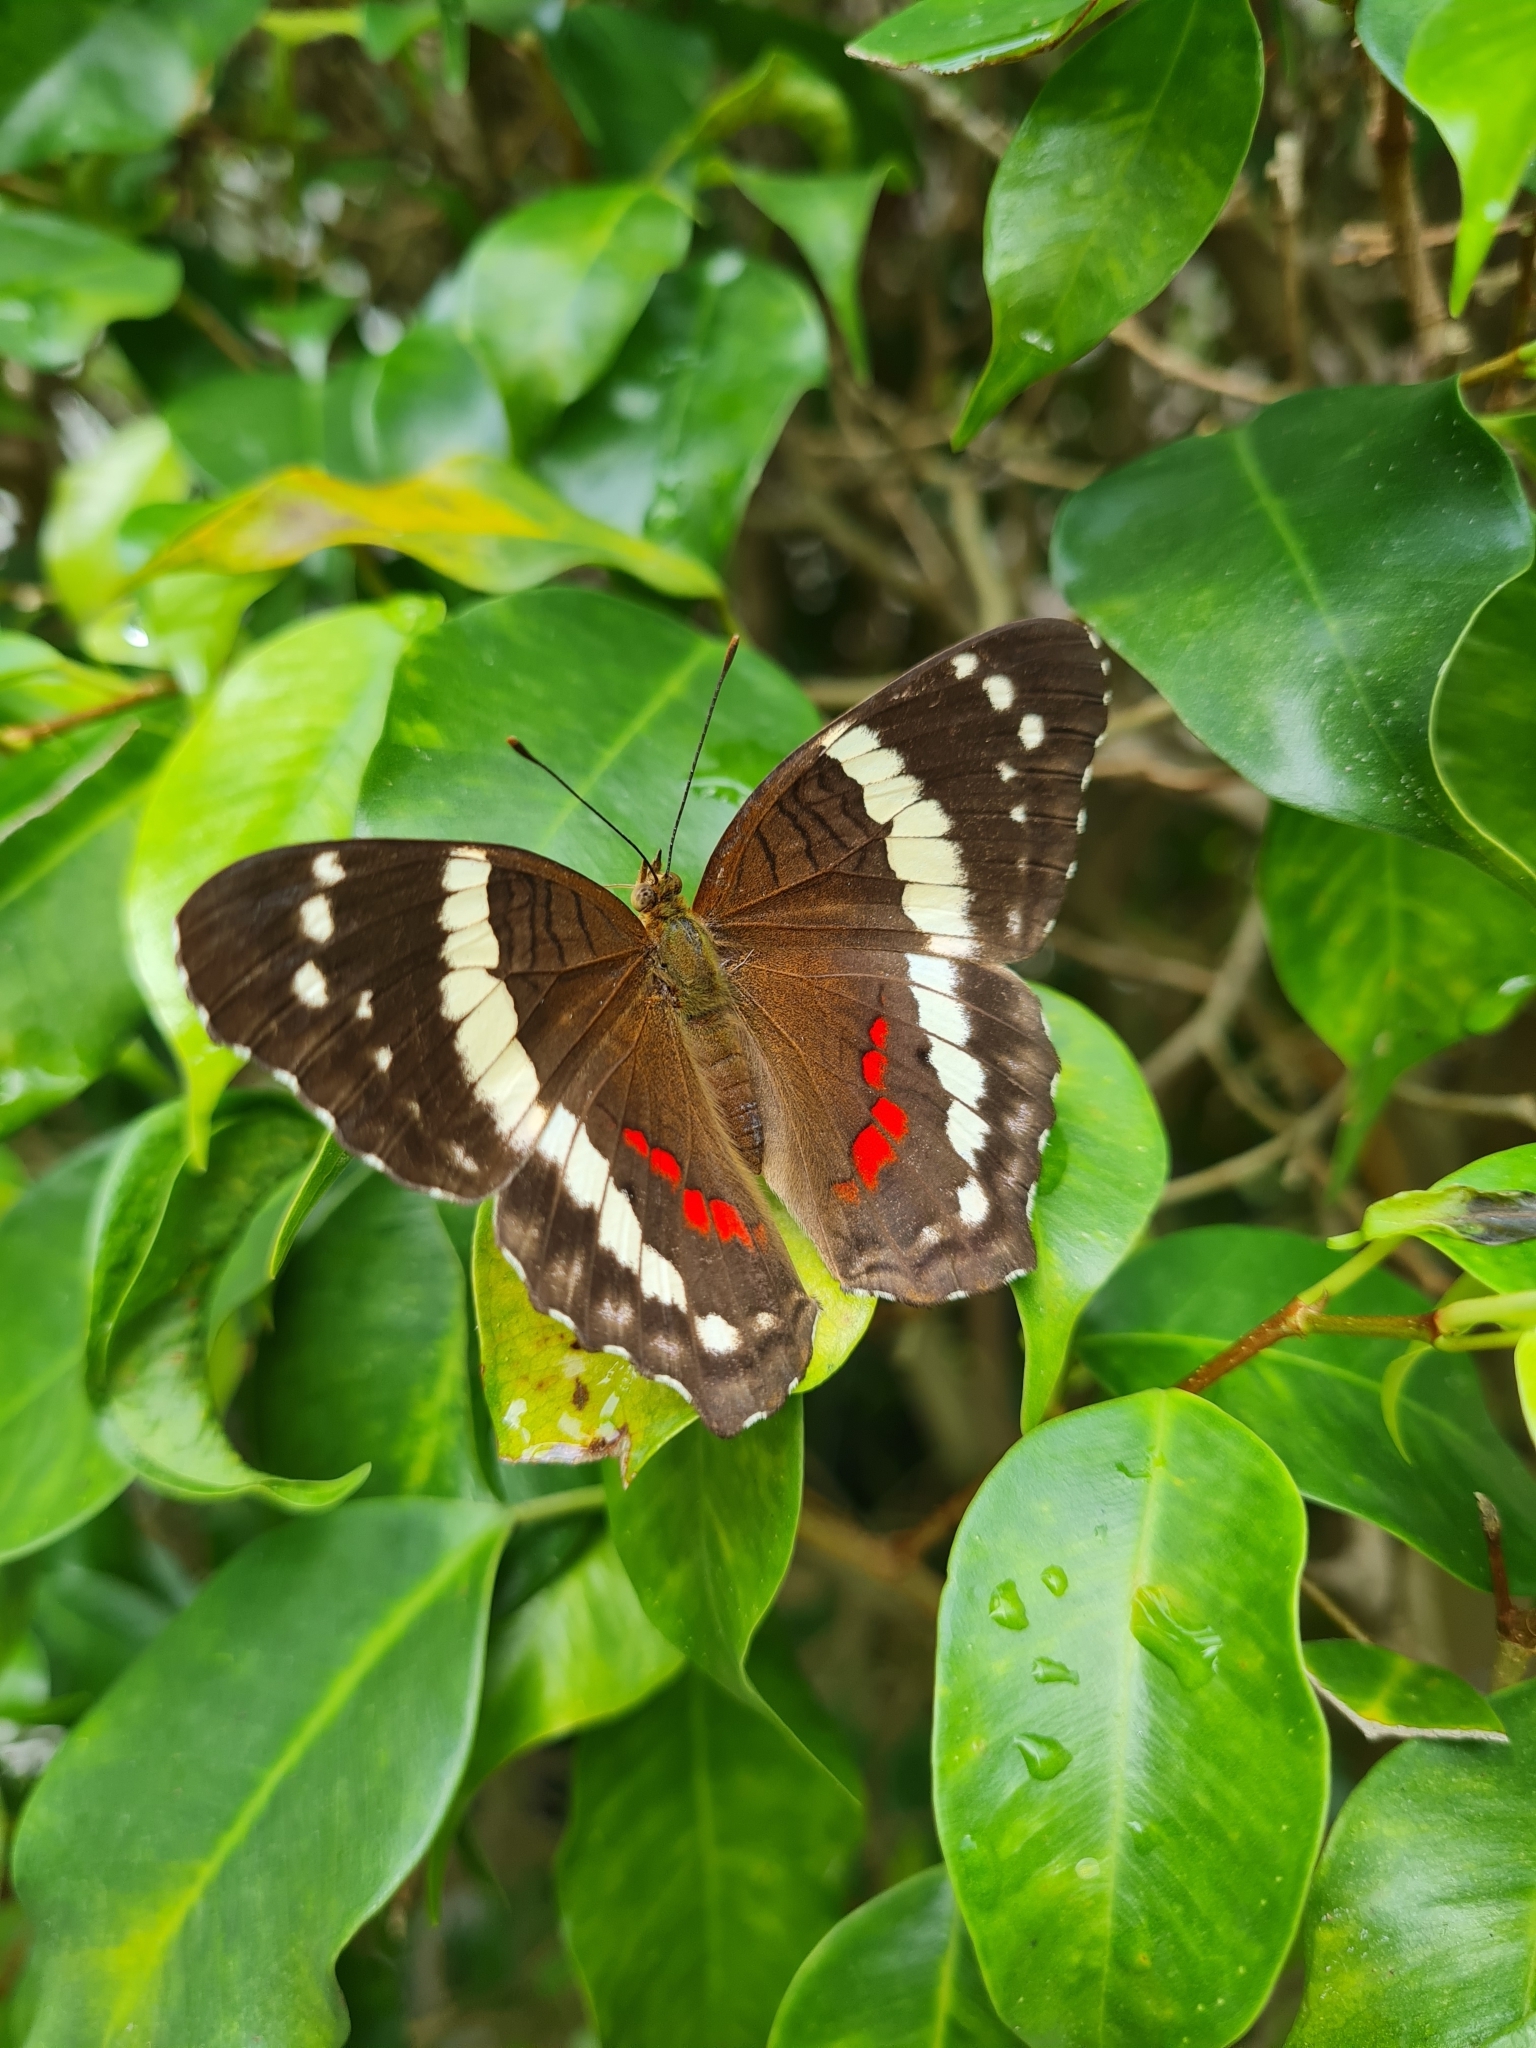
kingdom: Animalia
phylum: Arthropoda
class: Insecta
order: Lepidoptera
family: Nymphalidae
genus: Anartia
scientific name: Anartia fatima
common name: Banded peacock
